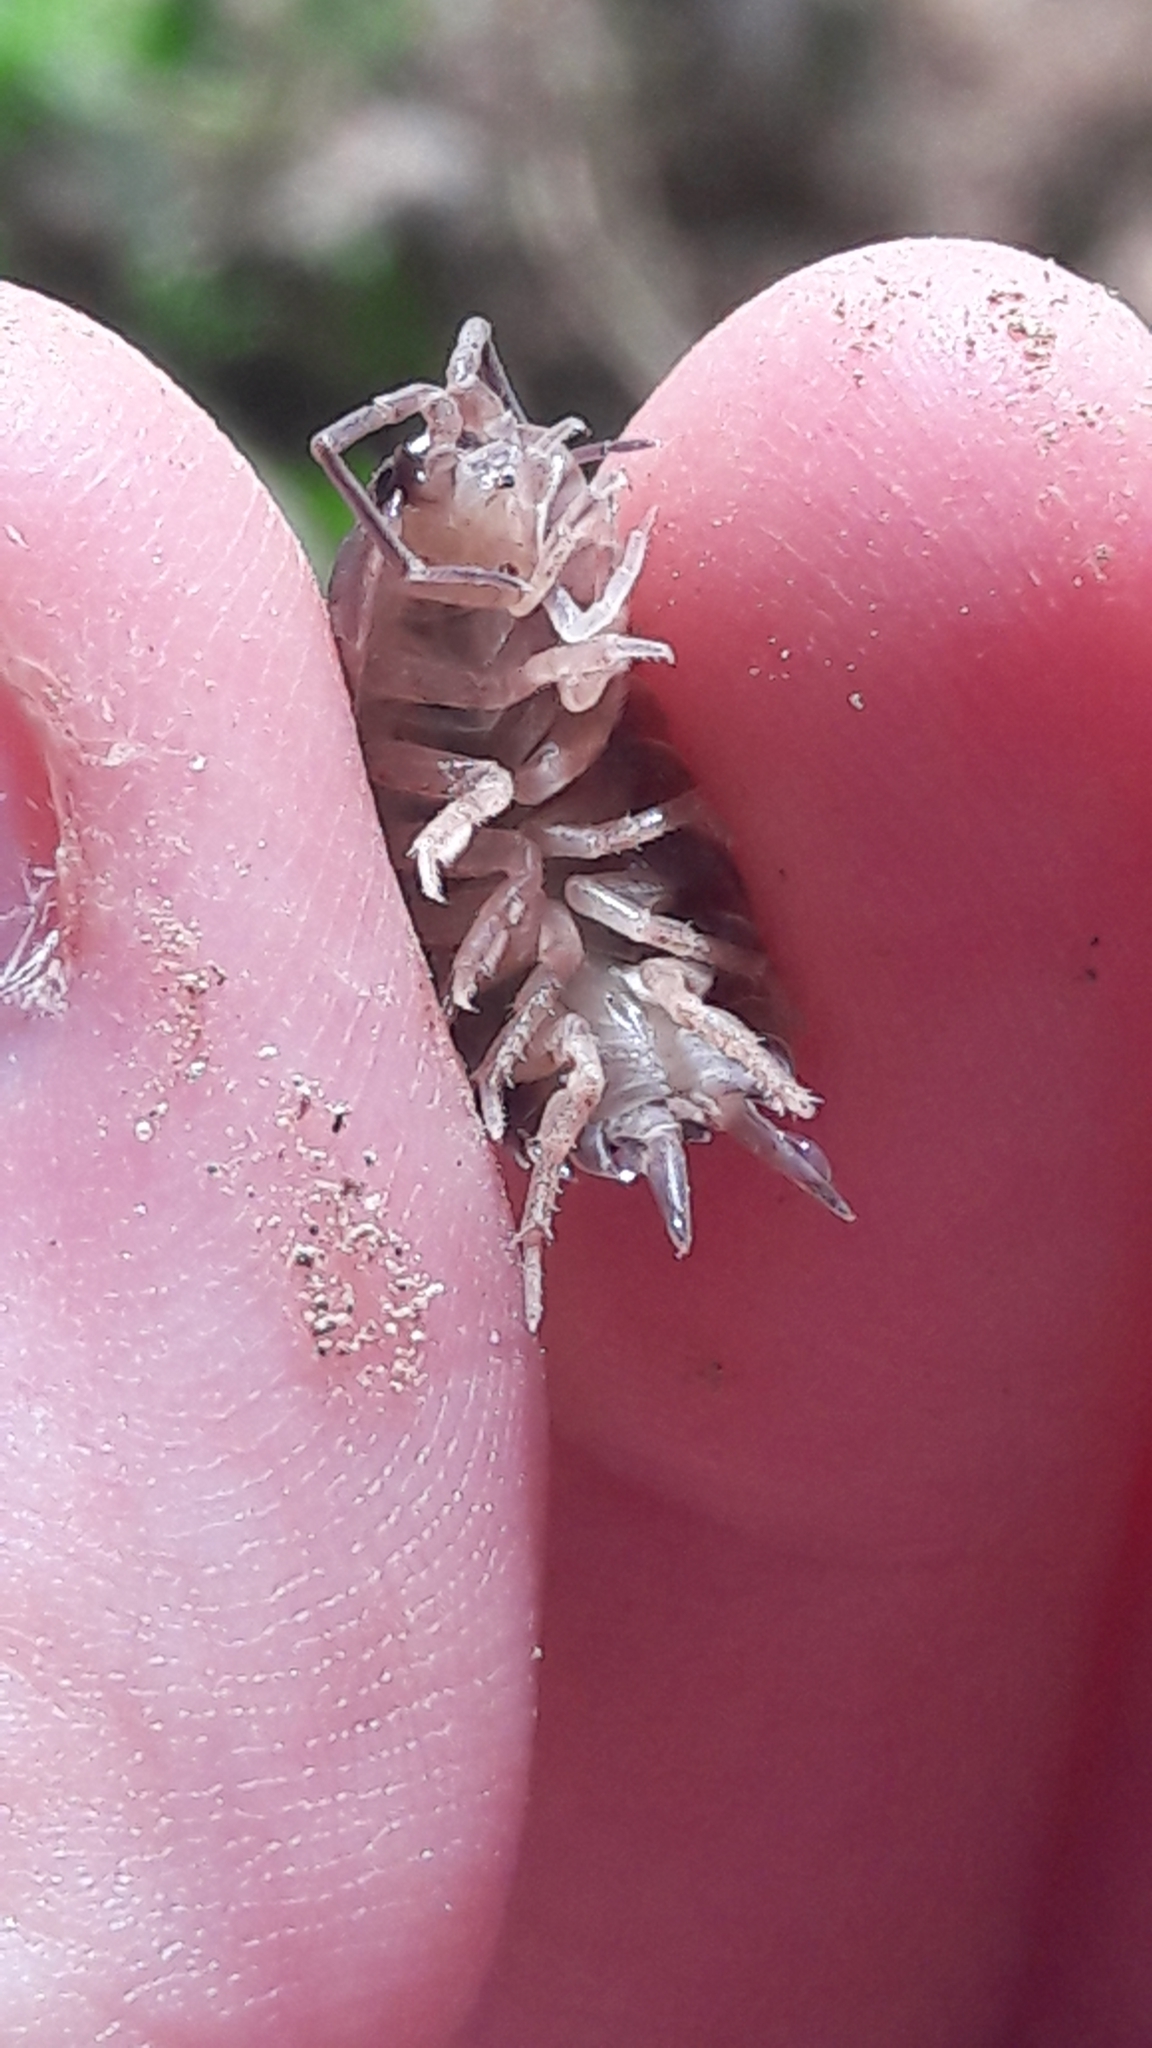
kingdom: Animalia
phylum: Arthropoda
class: Malacostraca
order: Isopoda
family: Porcellionidae
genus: Porcellio
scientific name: Porcellio laevis
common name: Swift woodlouse
